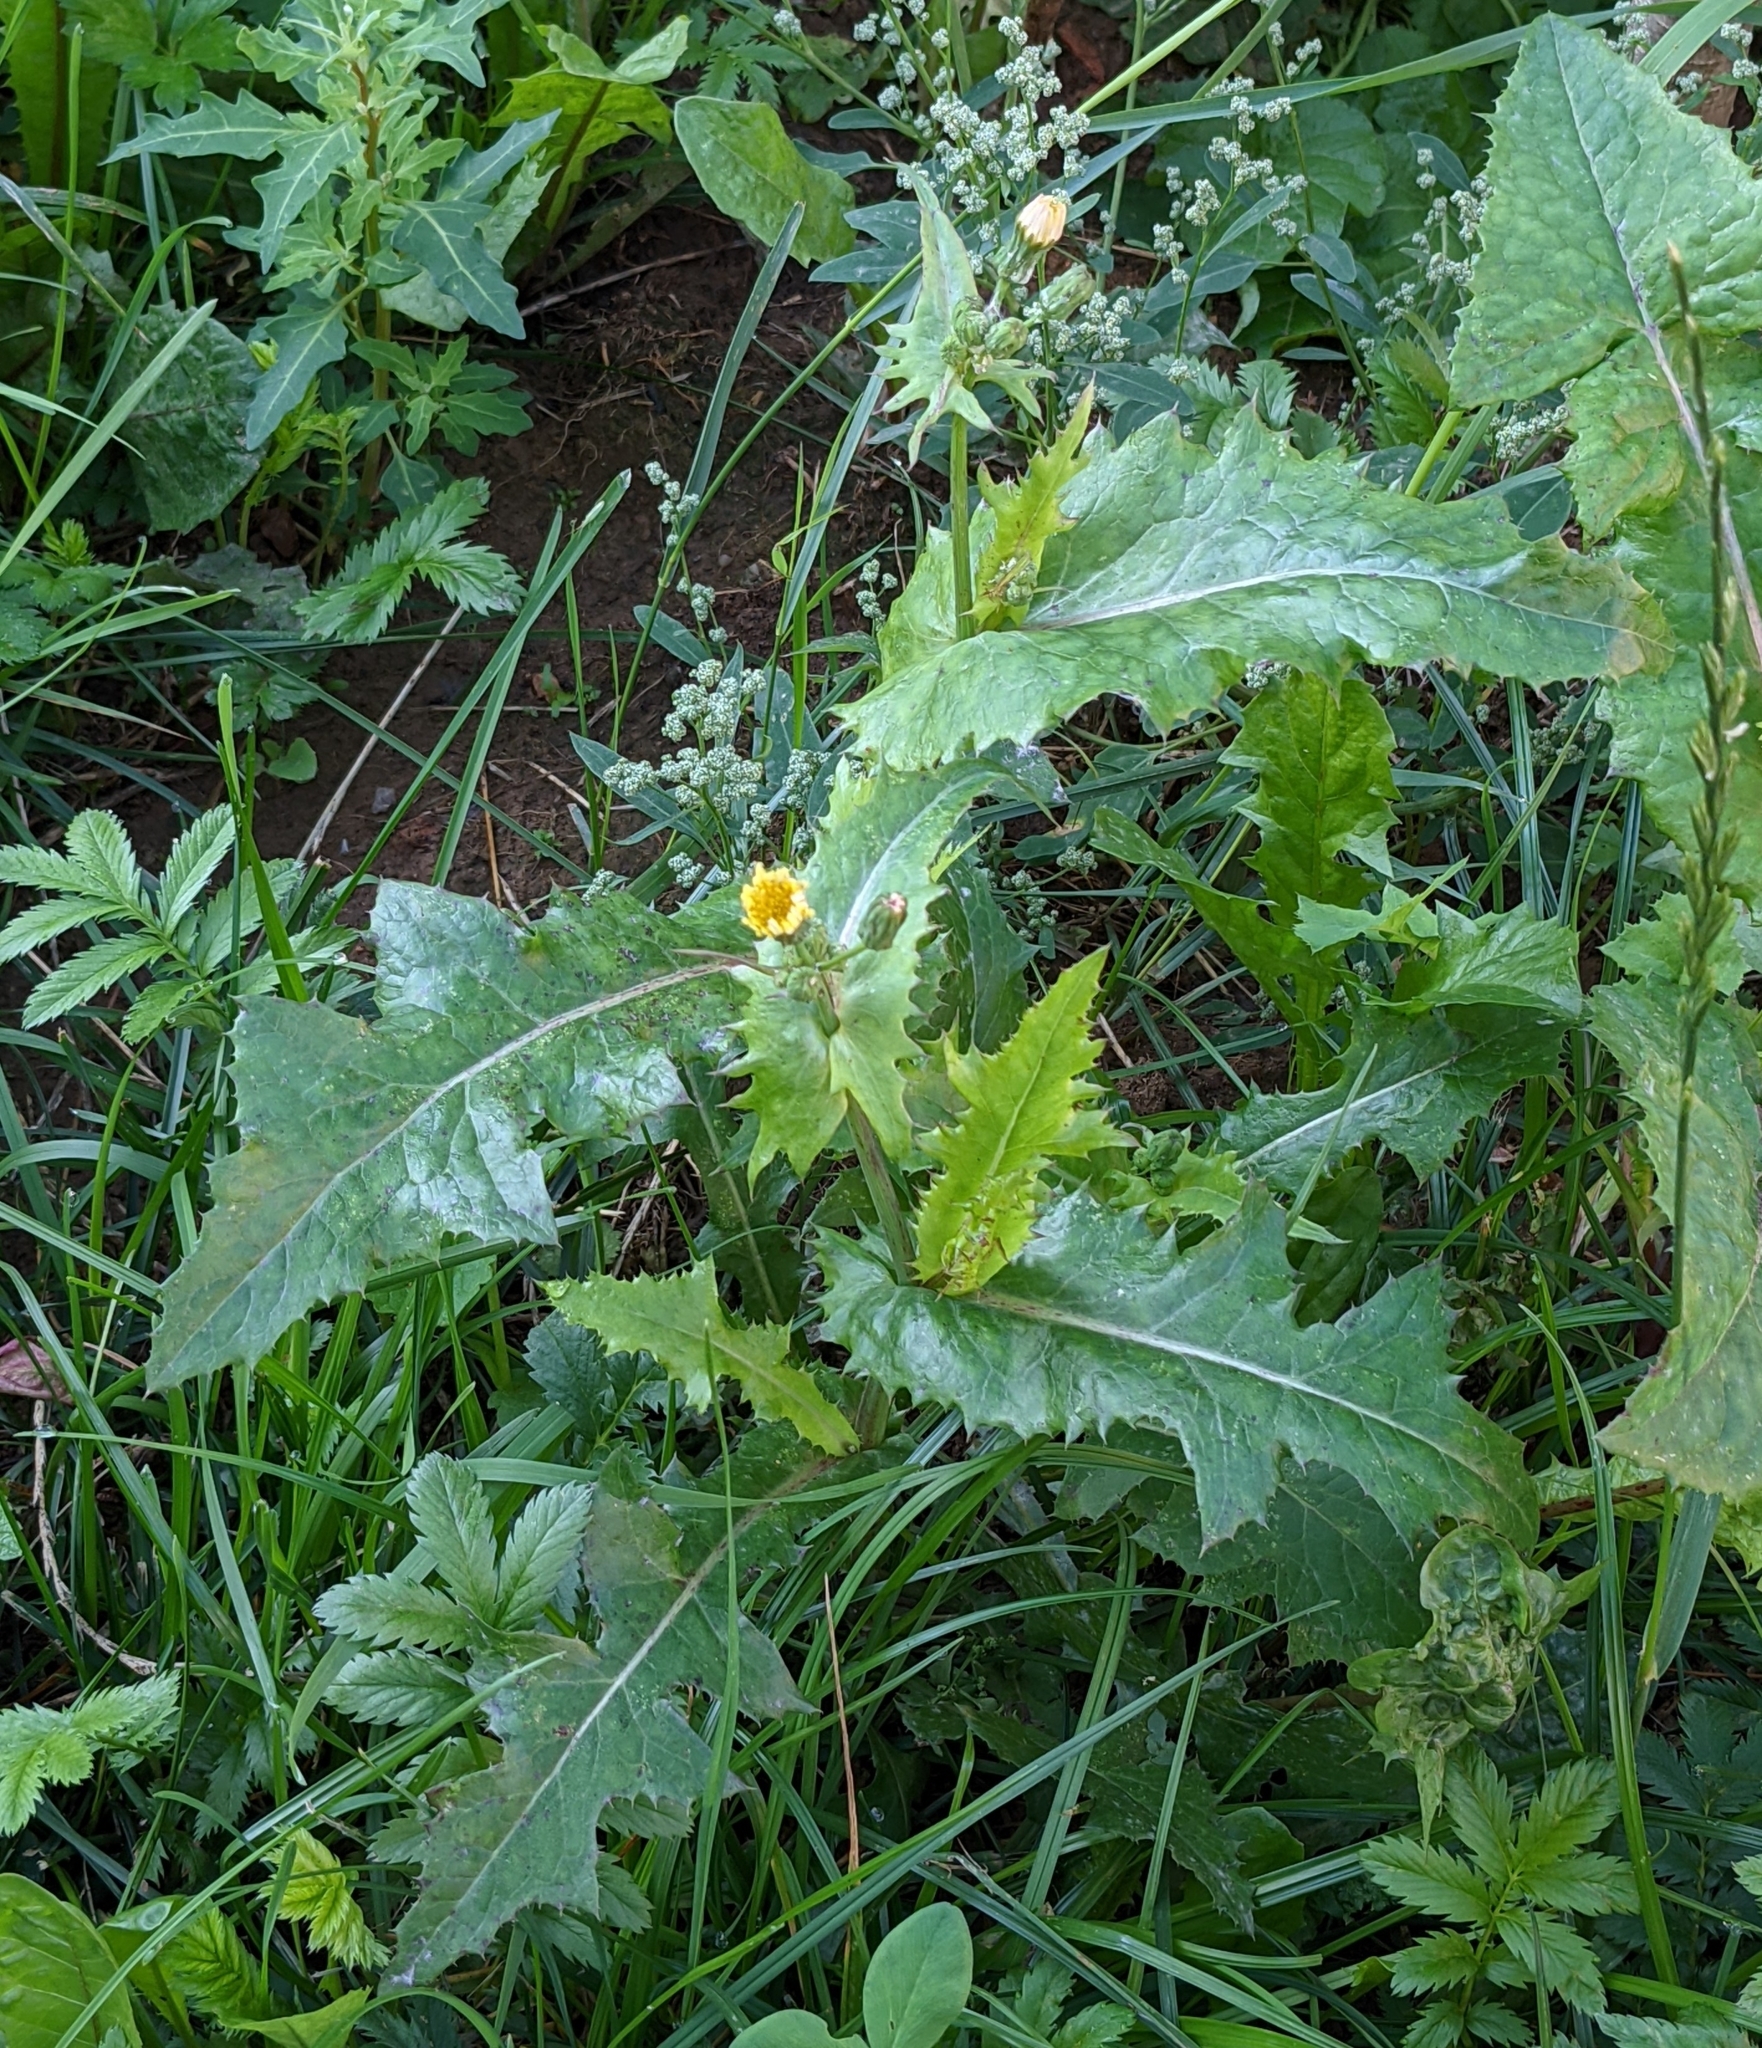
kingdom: Plantae
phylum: Tracheophyta
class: Magnoliopsida
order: Asterales
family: Asteraceae
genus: Sonchus
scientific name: Sonchus oleraceus
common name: Common sowthistle
